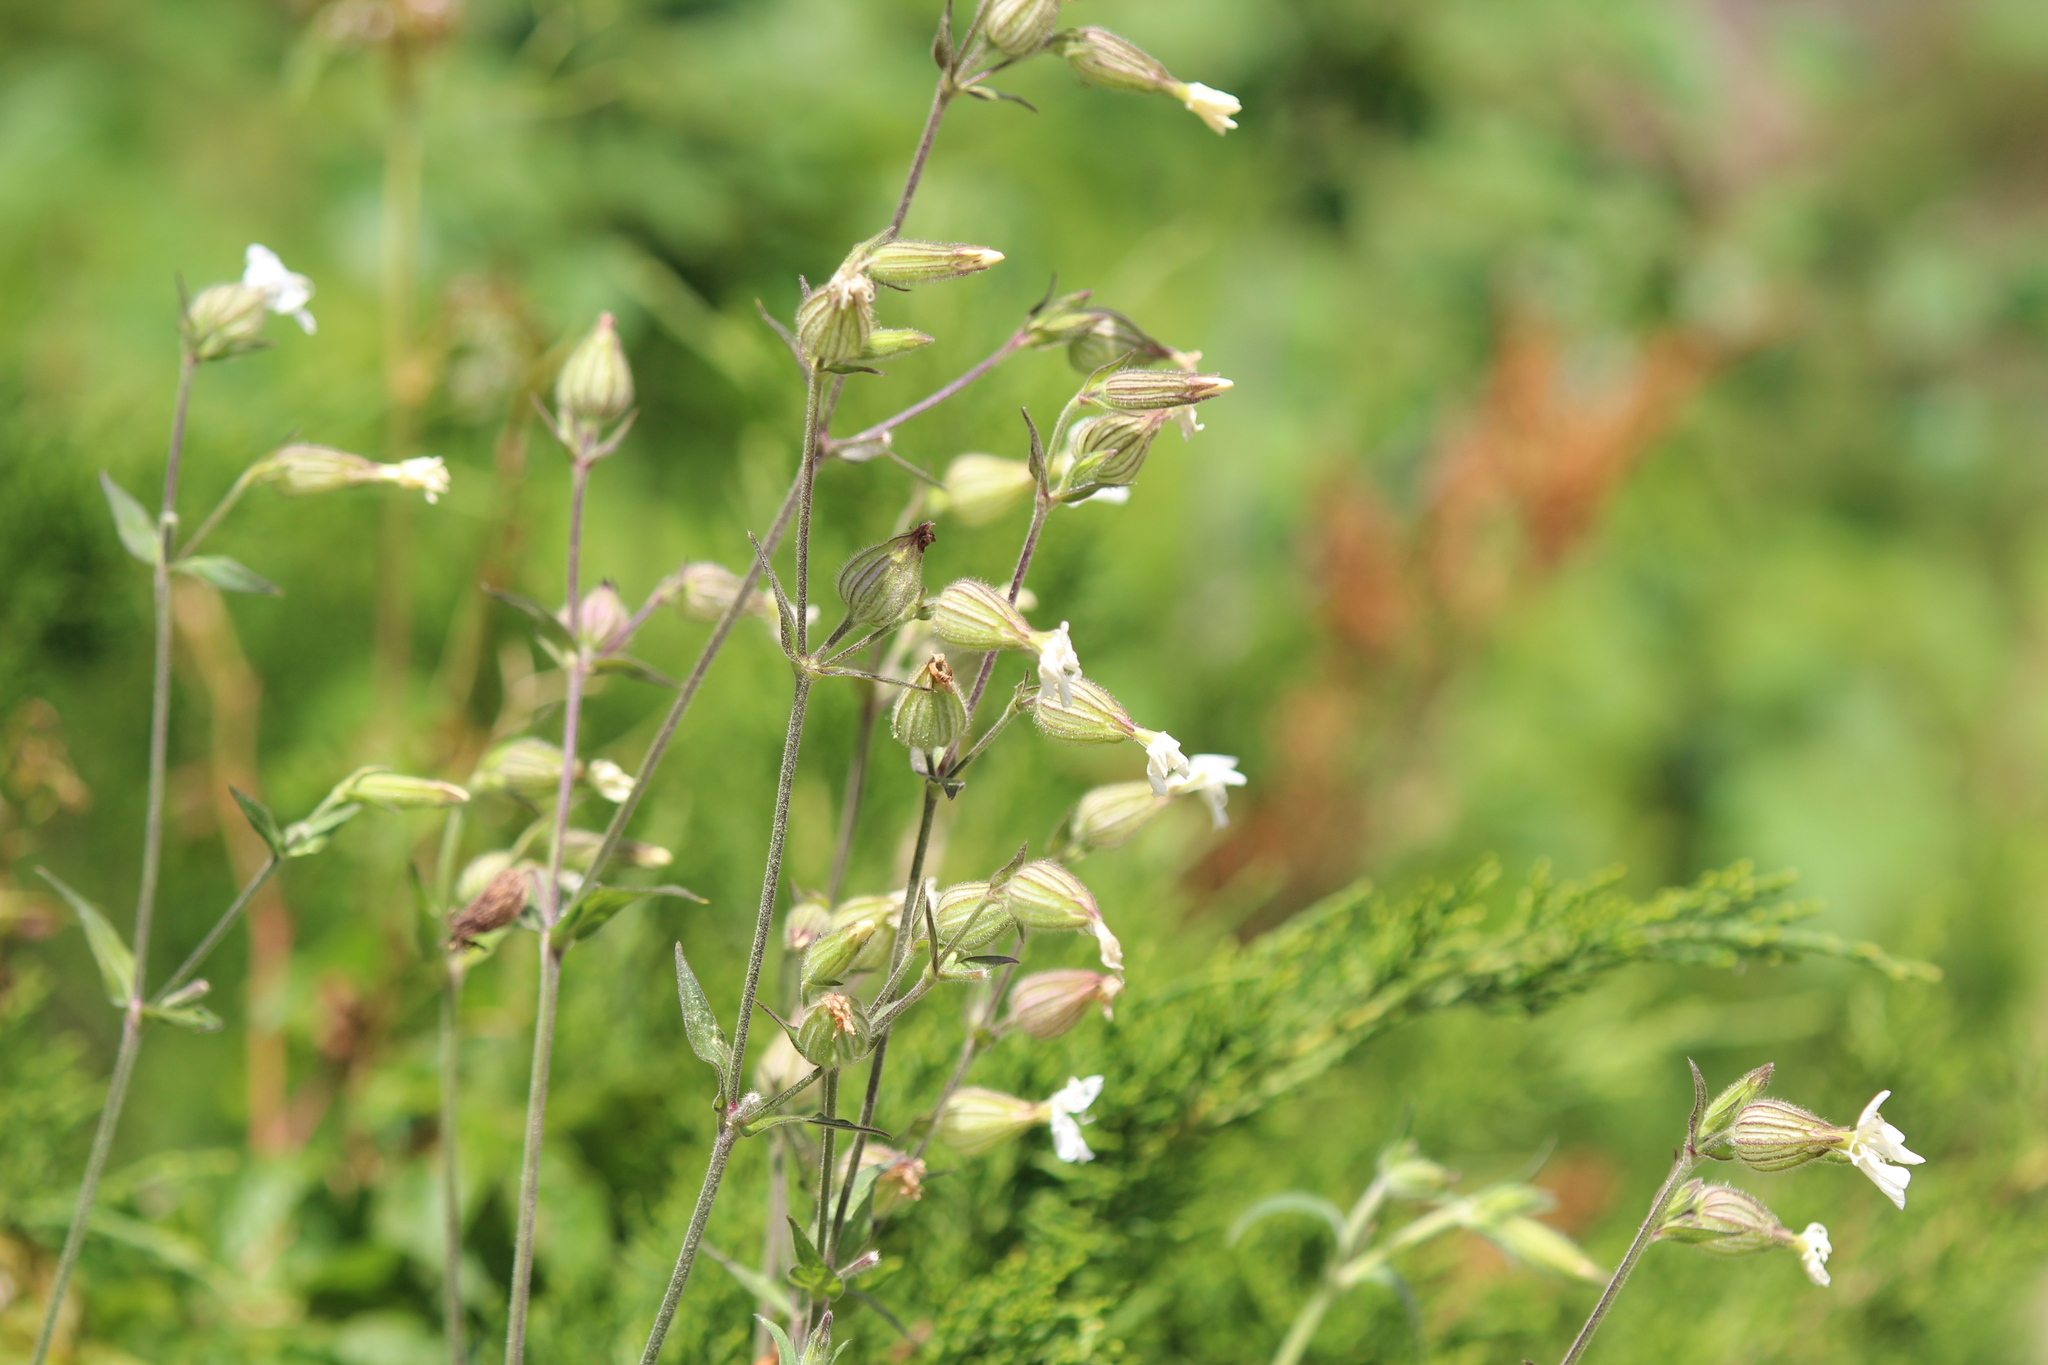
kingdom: Plantae
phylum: Tracheophyta
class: Magnoliopsida
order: Caryophyllales
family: Caryophyllaceae
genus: Silene
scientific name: Silene latifolia
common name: White campion
